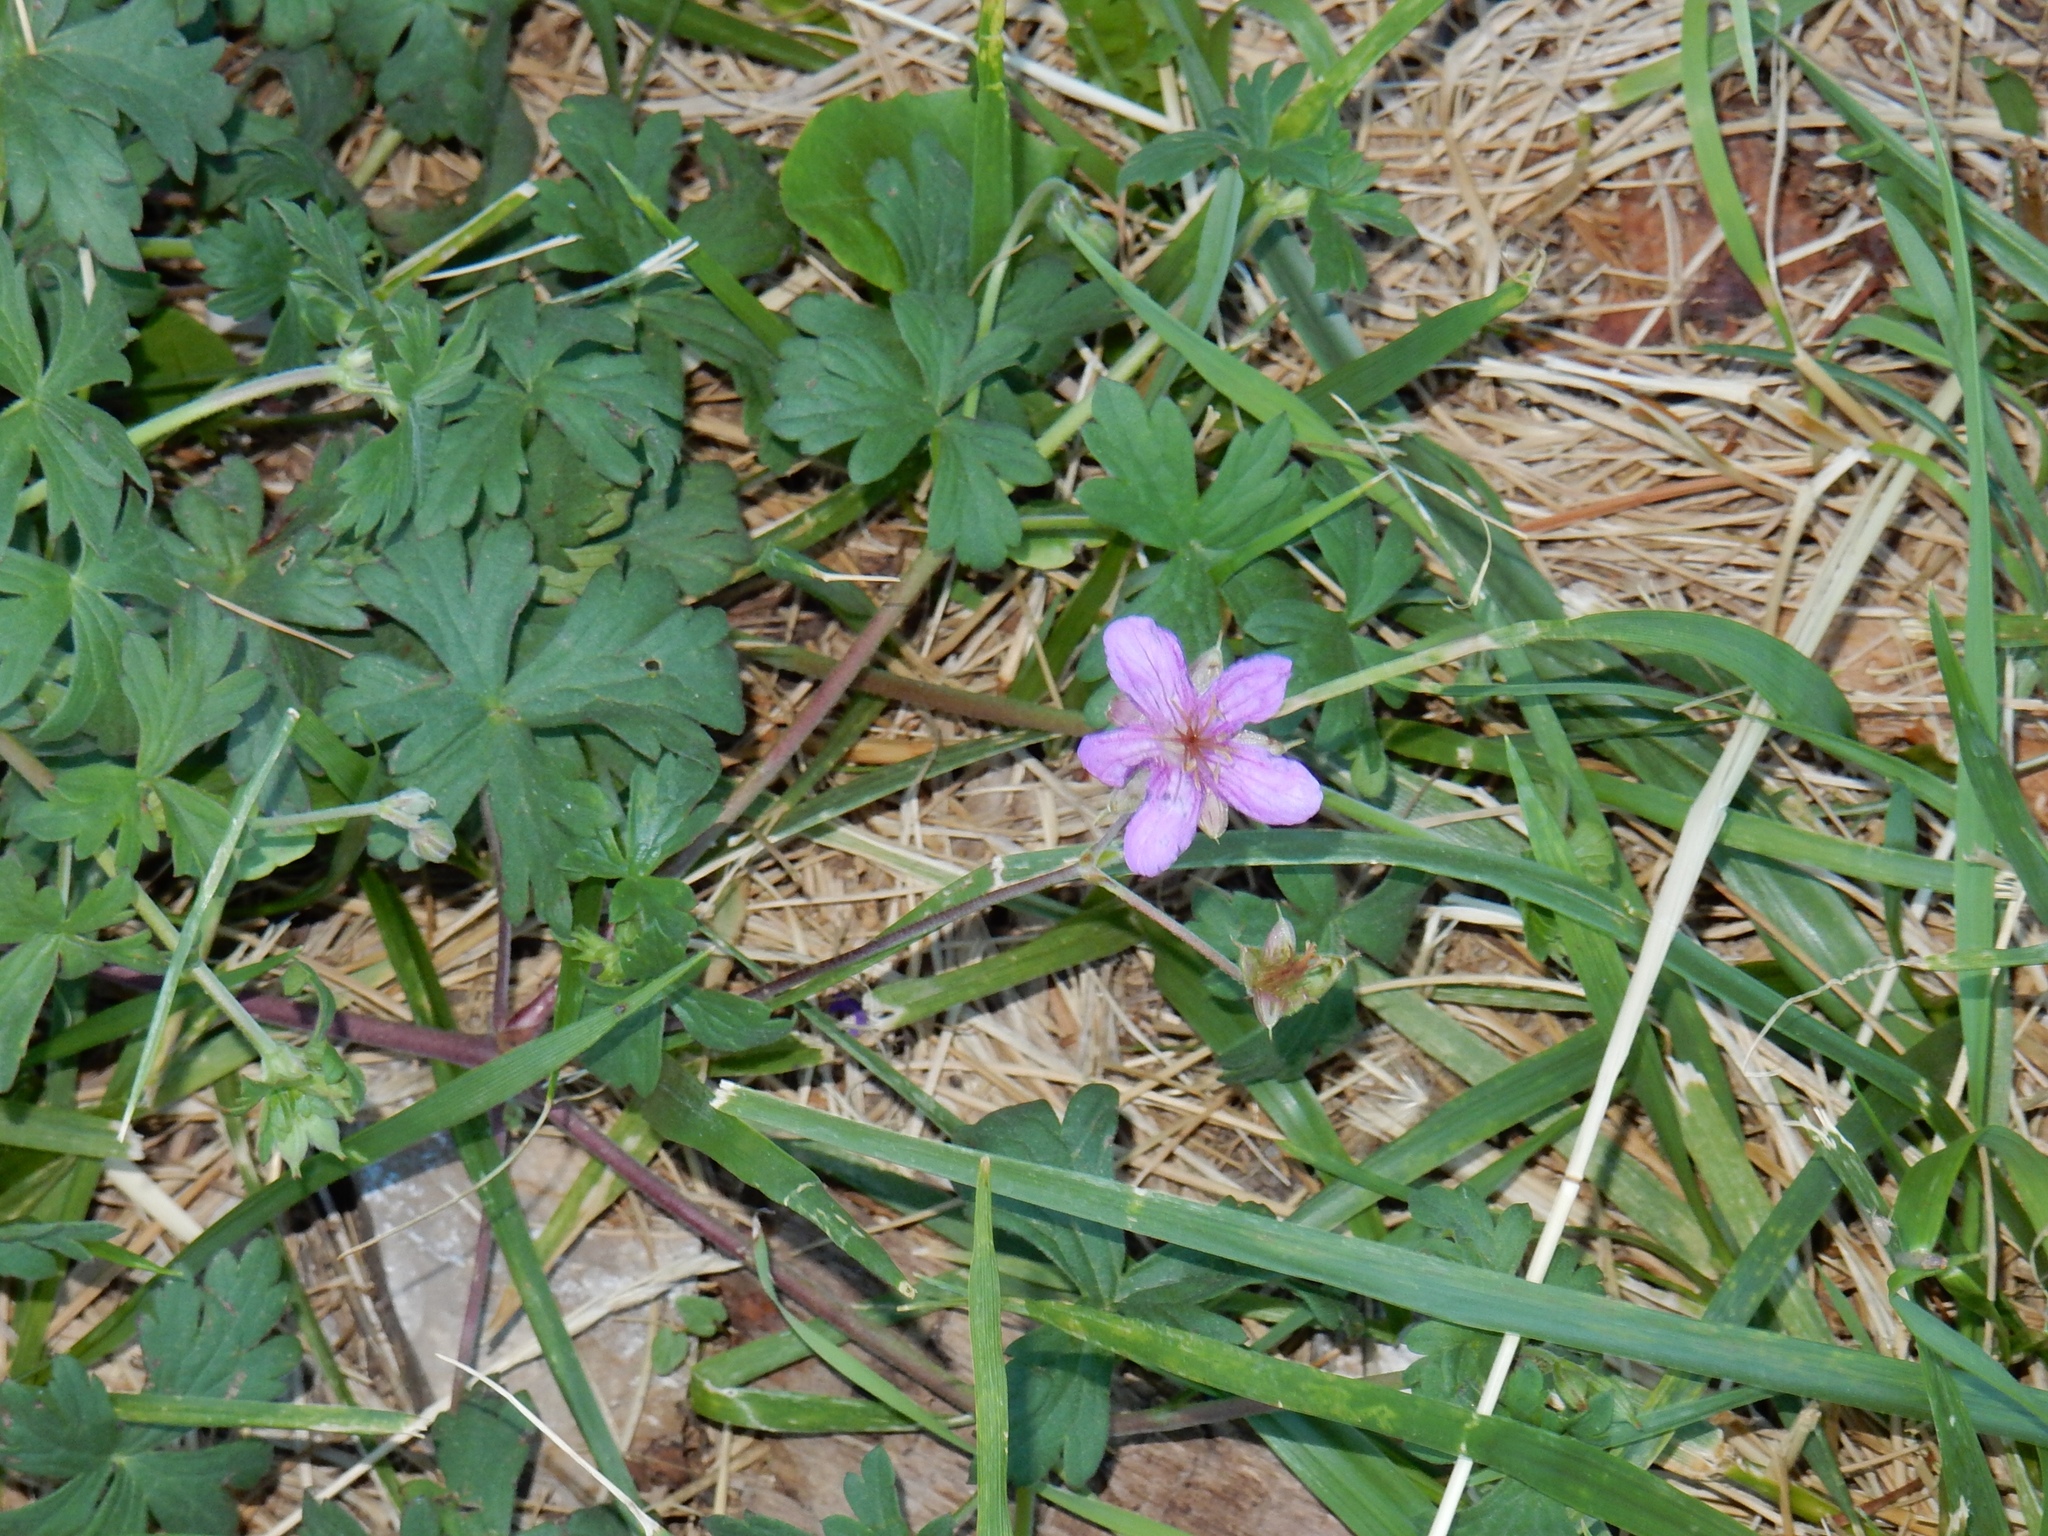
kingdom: Plantae
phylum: Tracheophyta
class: Magnoliopsida
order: Geraniales
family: Geraniaceae
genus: Geranium
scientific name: Geranium caespitosum
